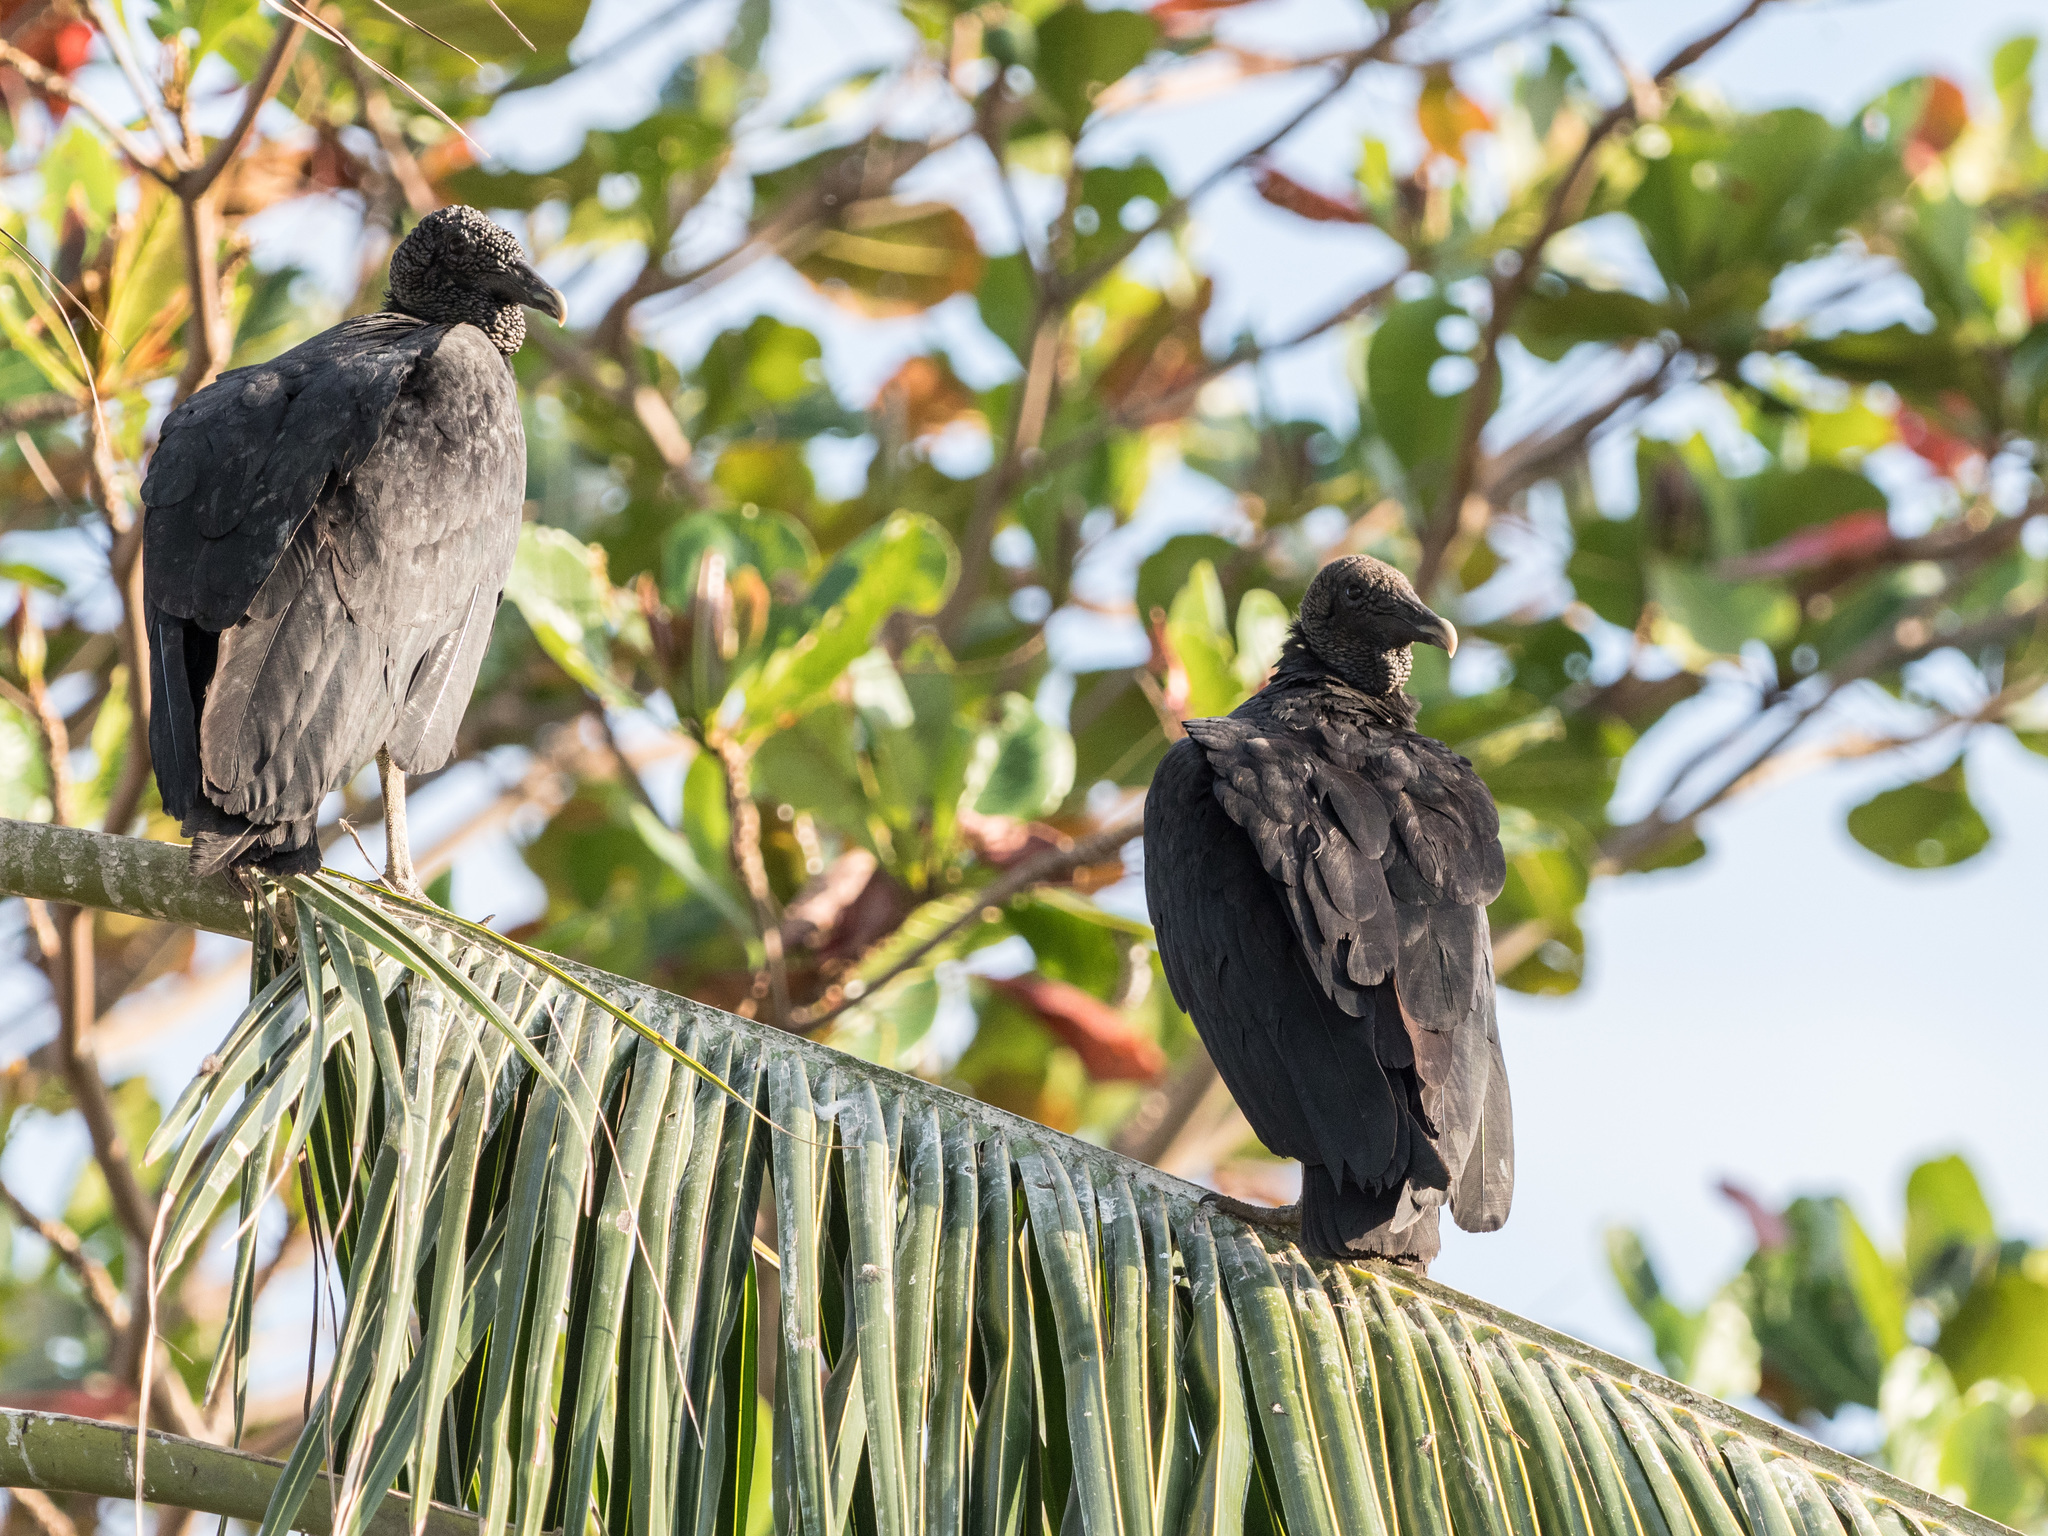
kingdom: Animalia
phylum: Chordata
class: Aves
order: Accipitriformes
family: Cathartidae
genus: Coragyps
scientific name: Coragyps atratus
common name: Black vulture
